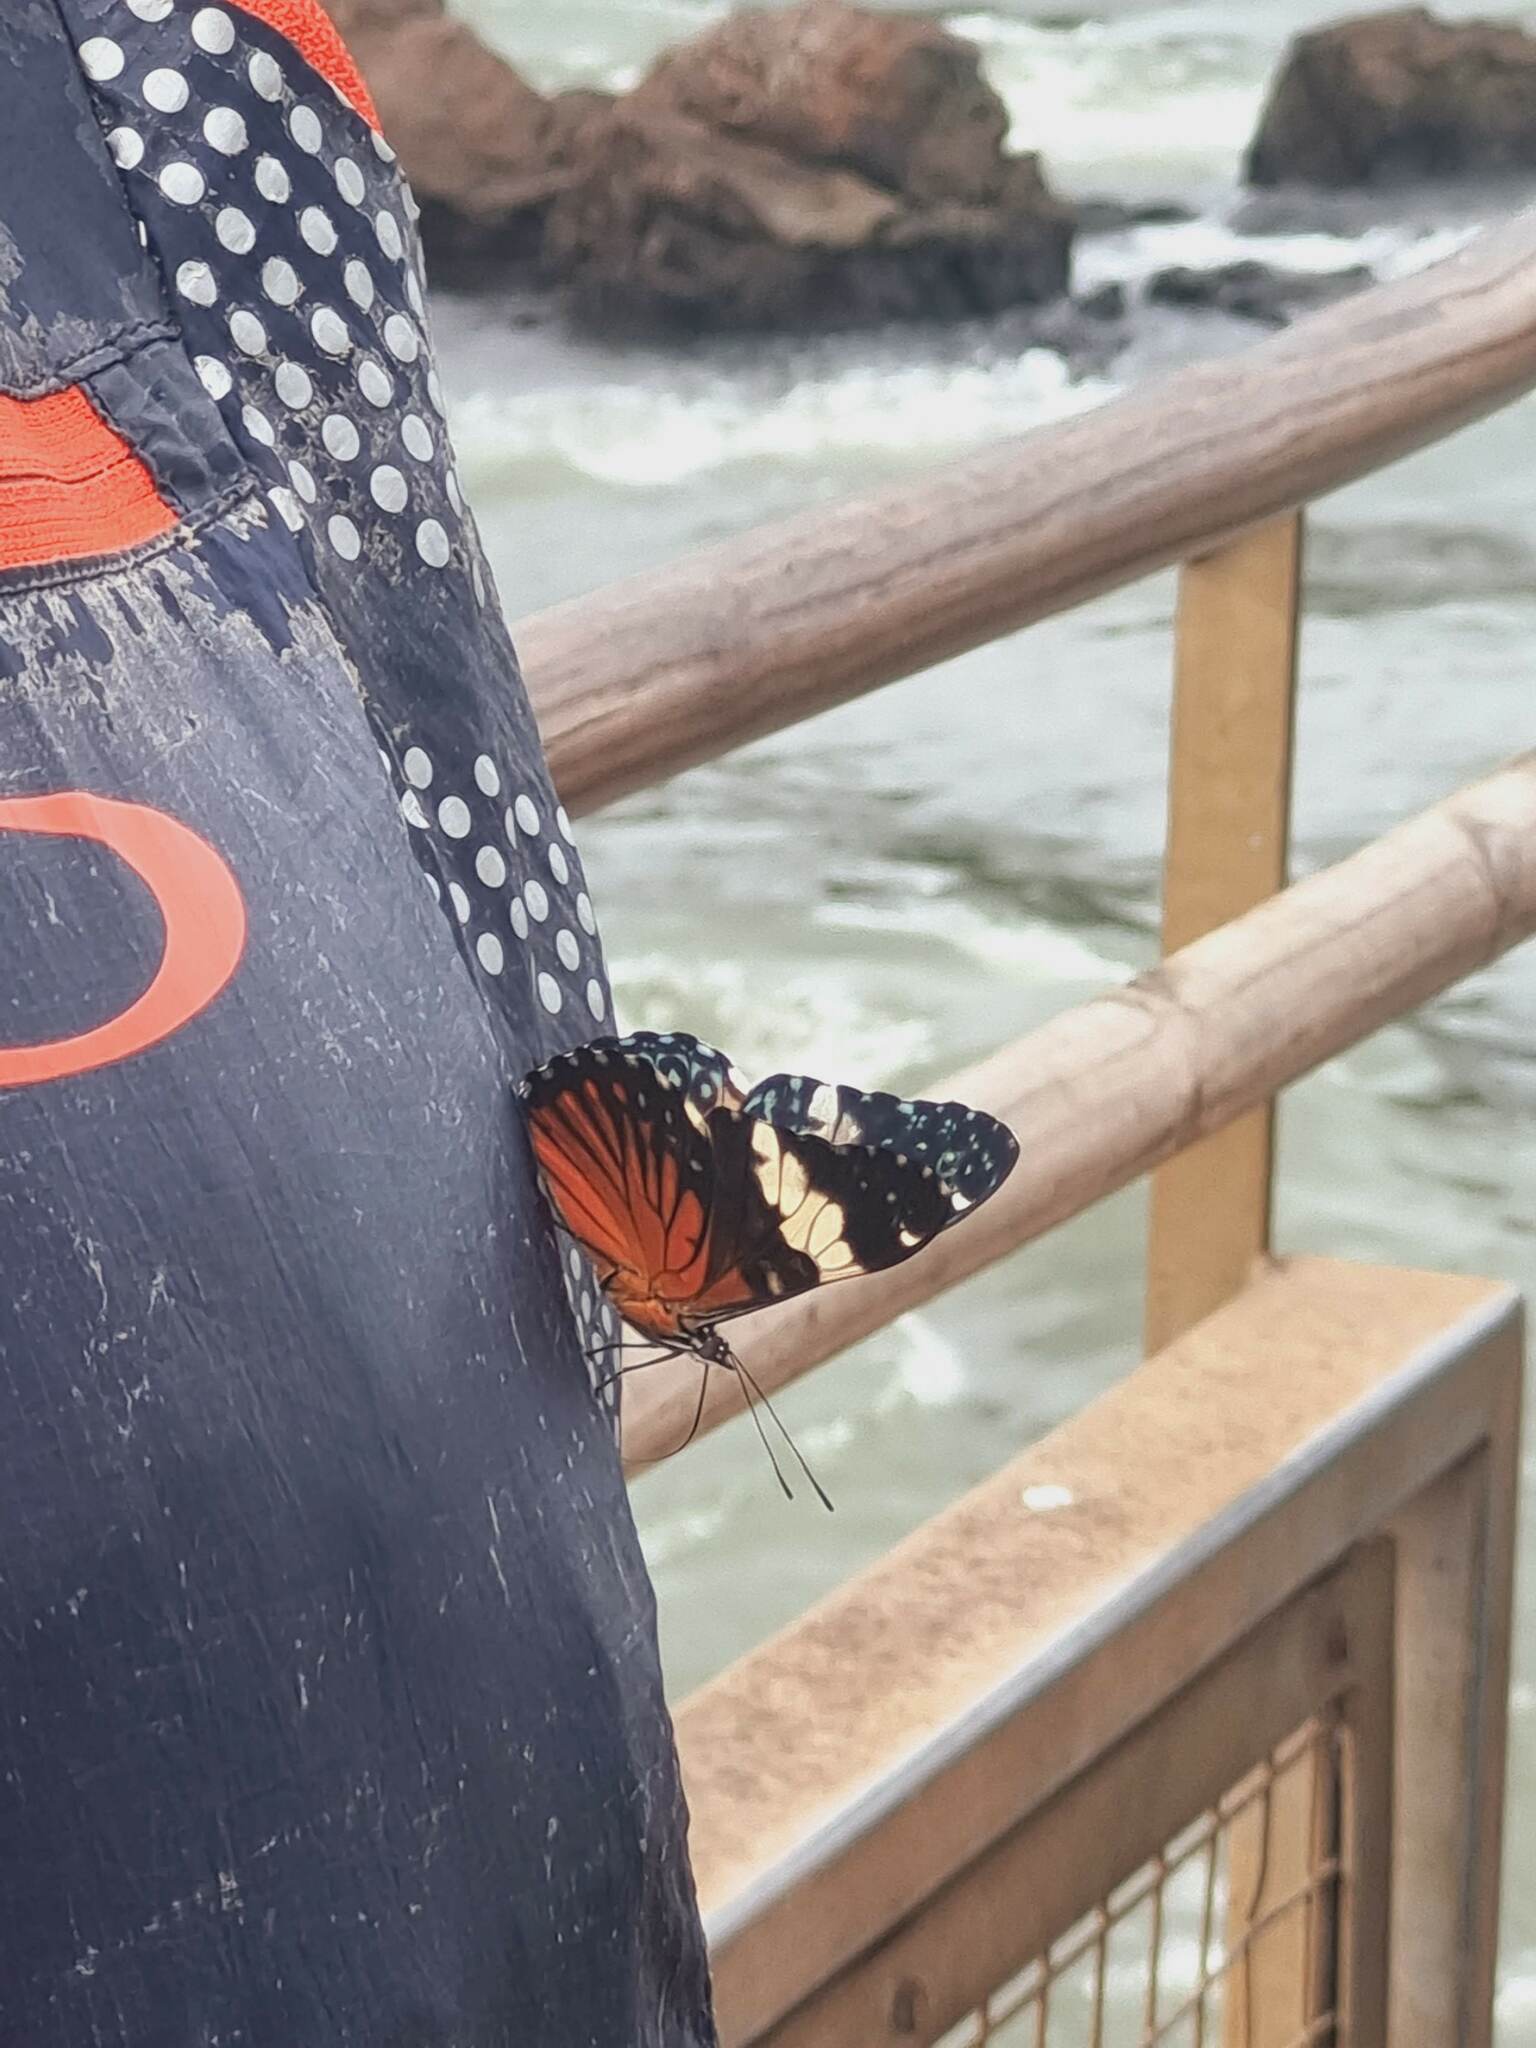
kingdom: Animalia
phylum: Arthropoda
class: Insecta
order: Lepidoptera
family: Nymphalidae
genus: Hamadryas
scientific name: Hamadryas amphinome
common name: Red cracker
